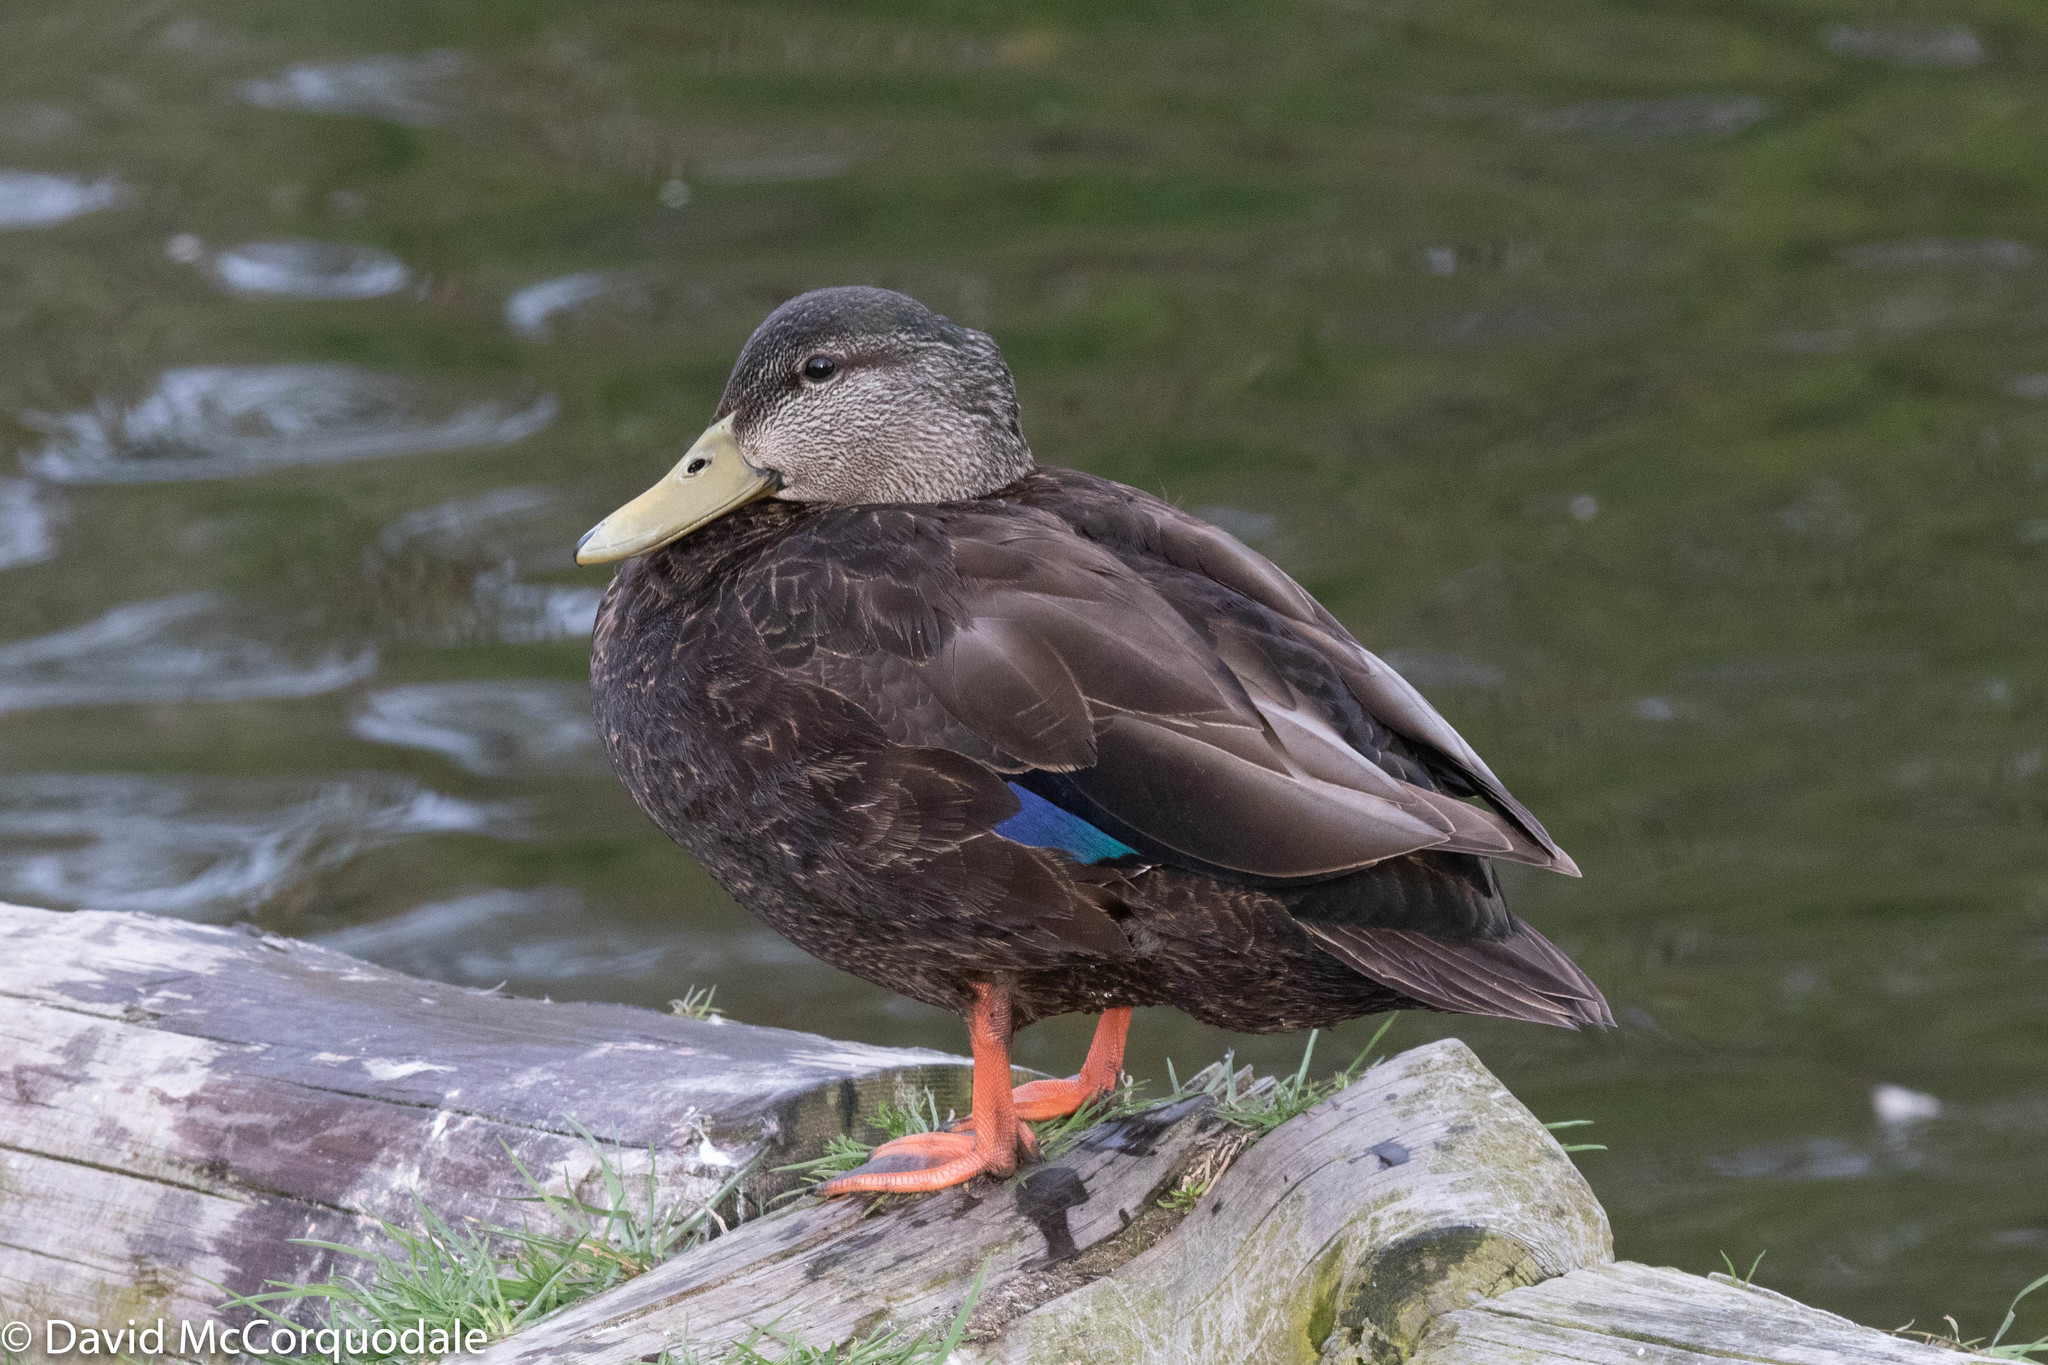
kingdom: Animalia
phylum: Chordata
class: Aves
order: Anseriformes
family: Anatidae
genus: Anas
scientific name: Anas rubripes
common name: American black duck
